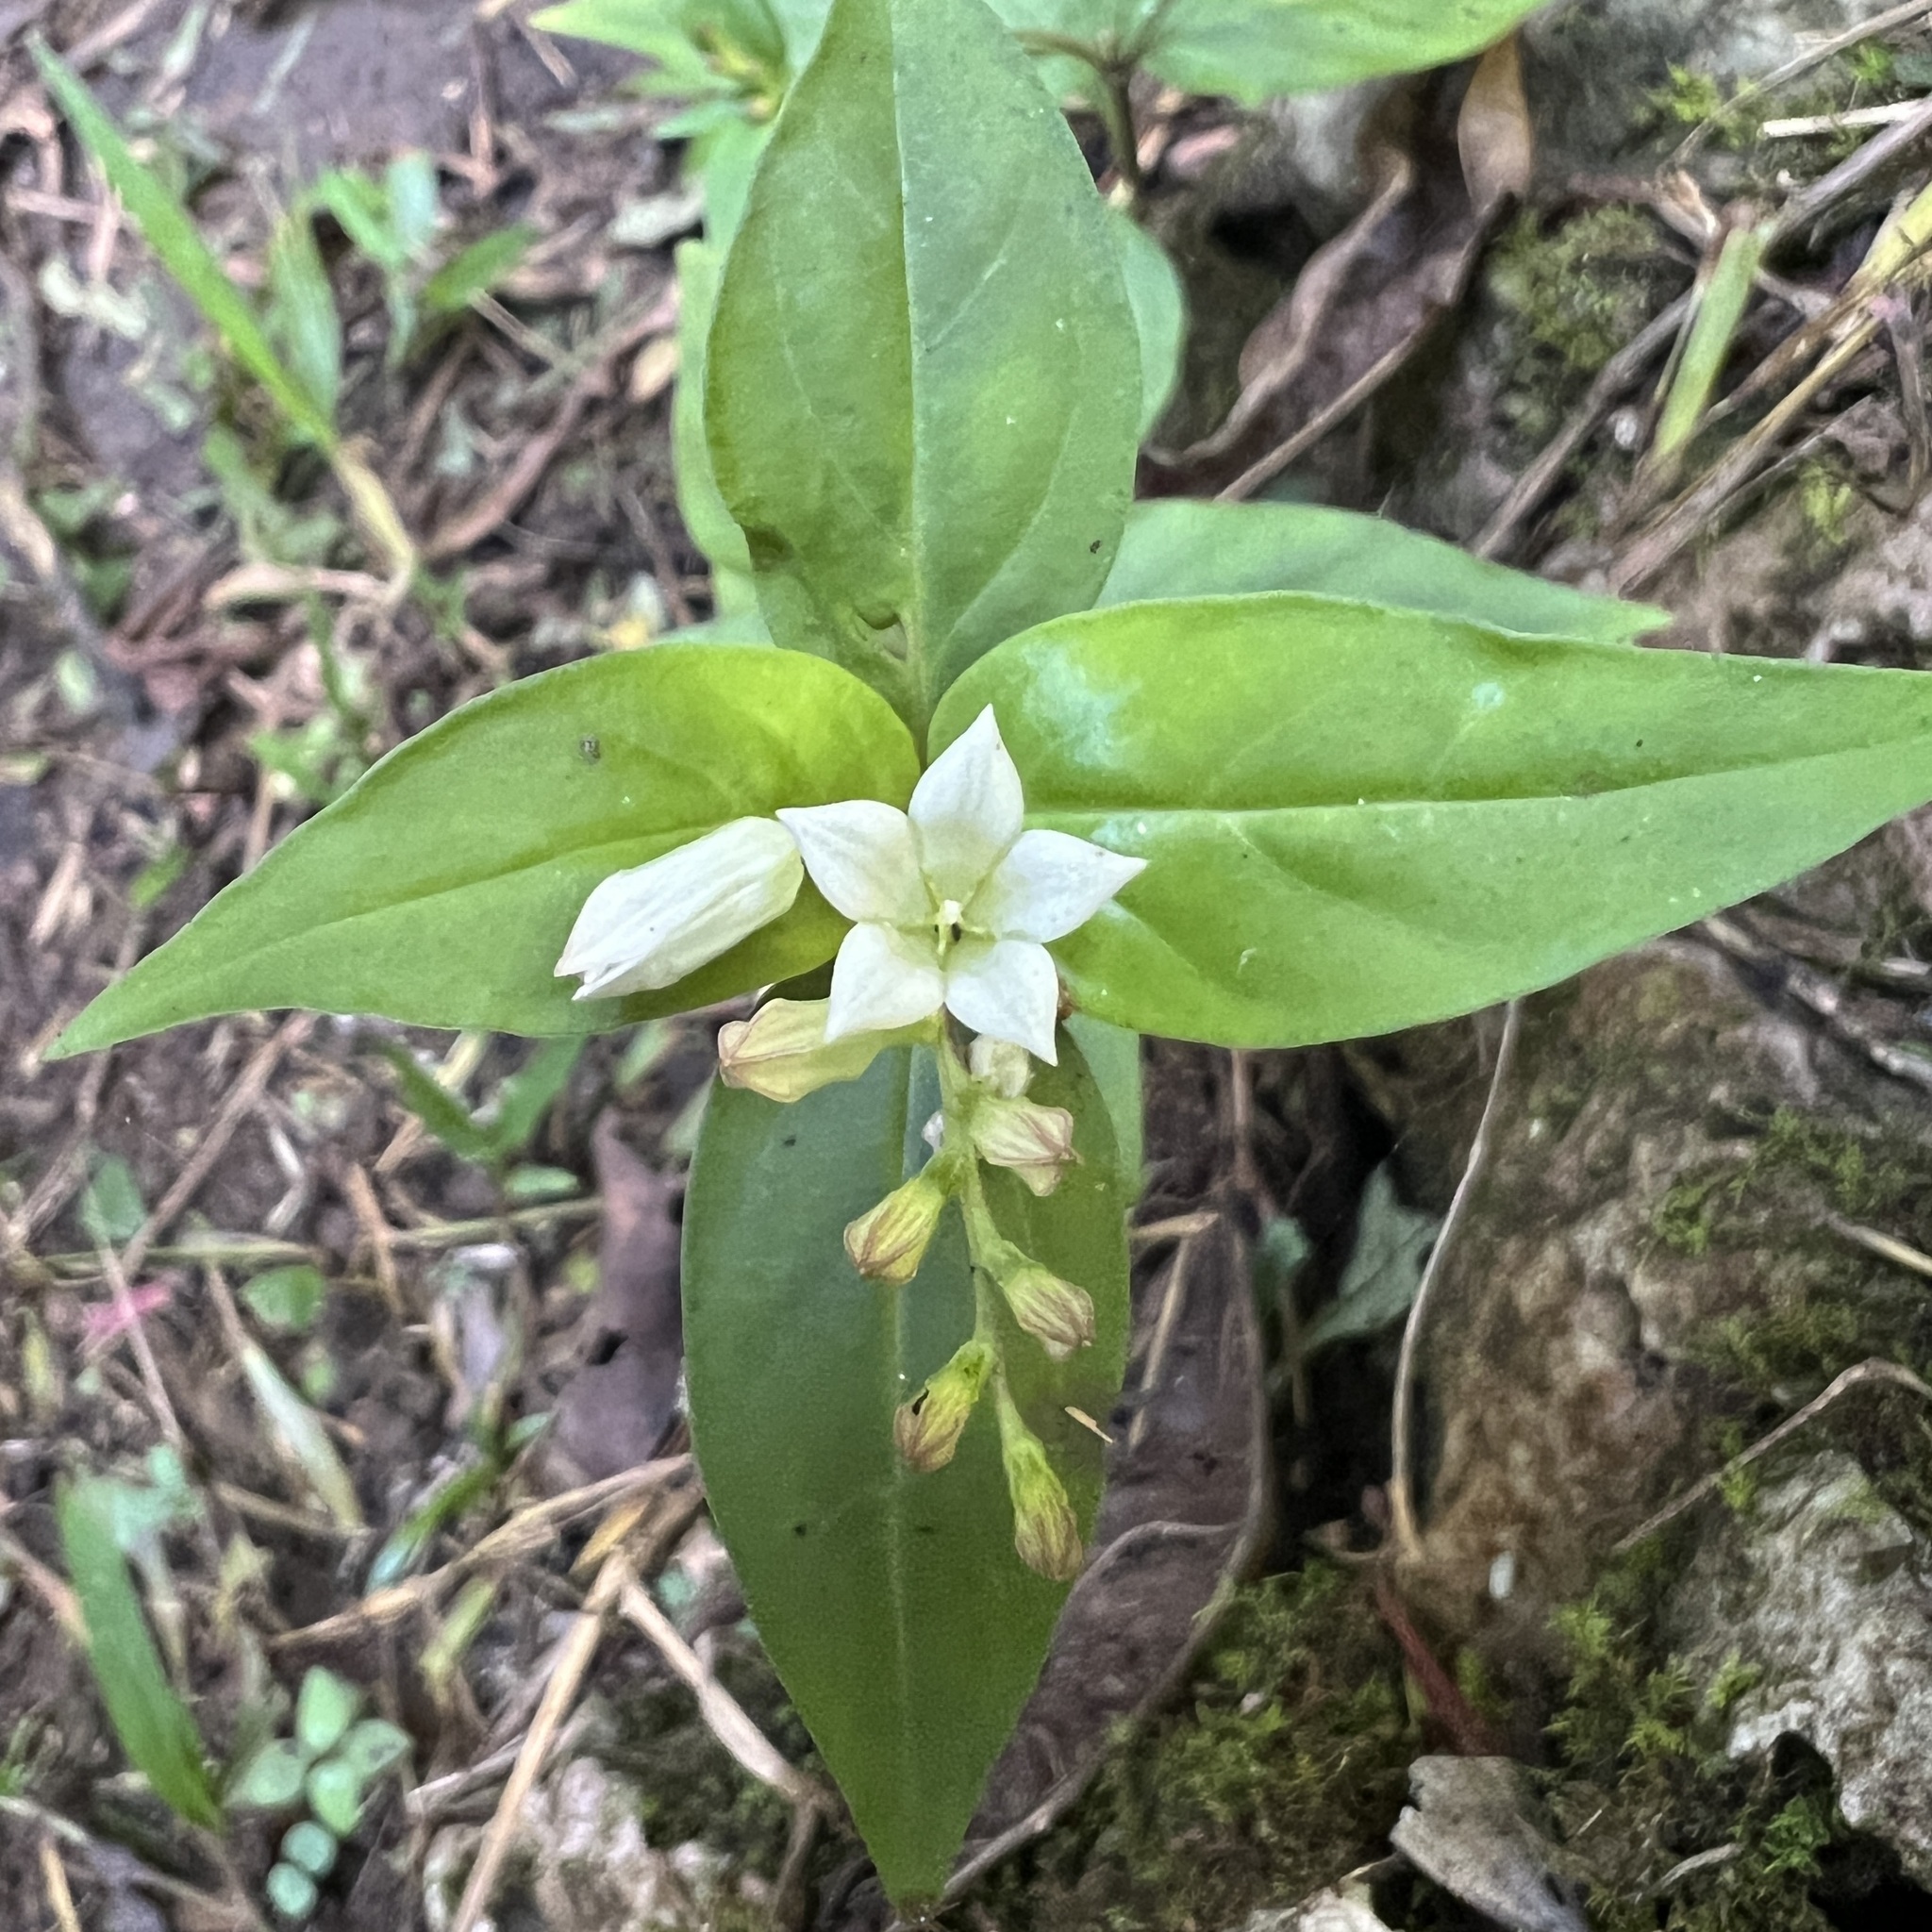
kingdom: Plantae
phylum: Tracheophyta
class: Magnoliopsida
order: Gentianales
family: Loganiaceae
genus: Spigelia
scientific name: Spigelia humboldtiana
